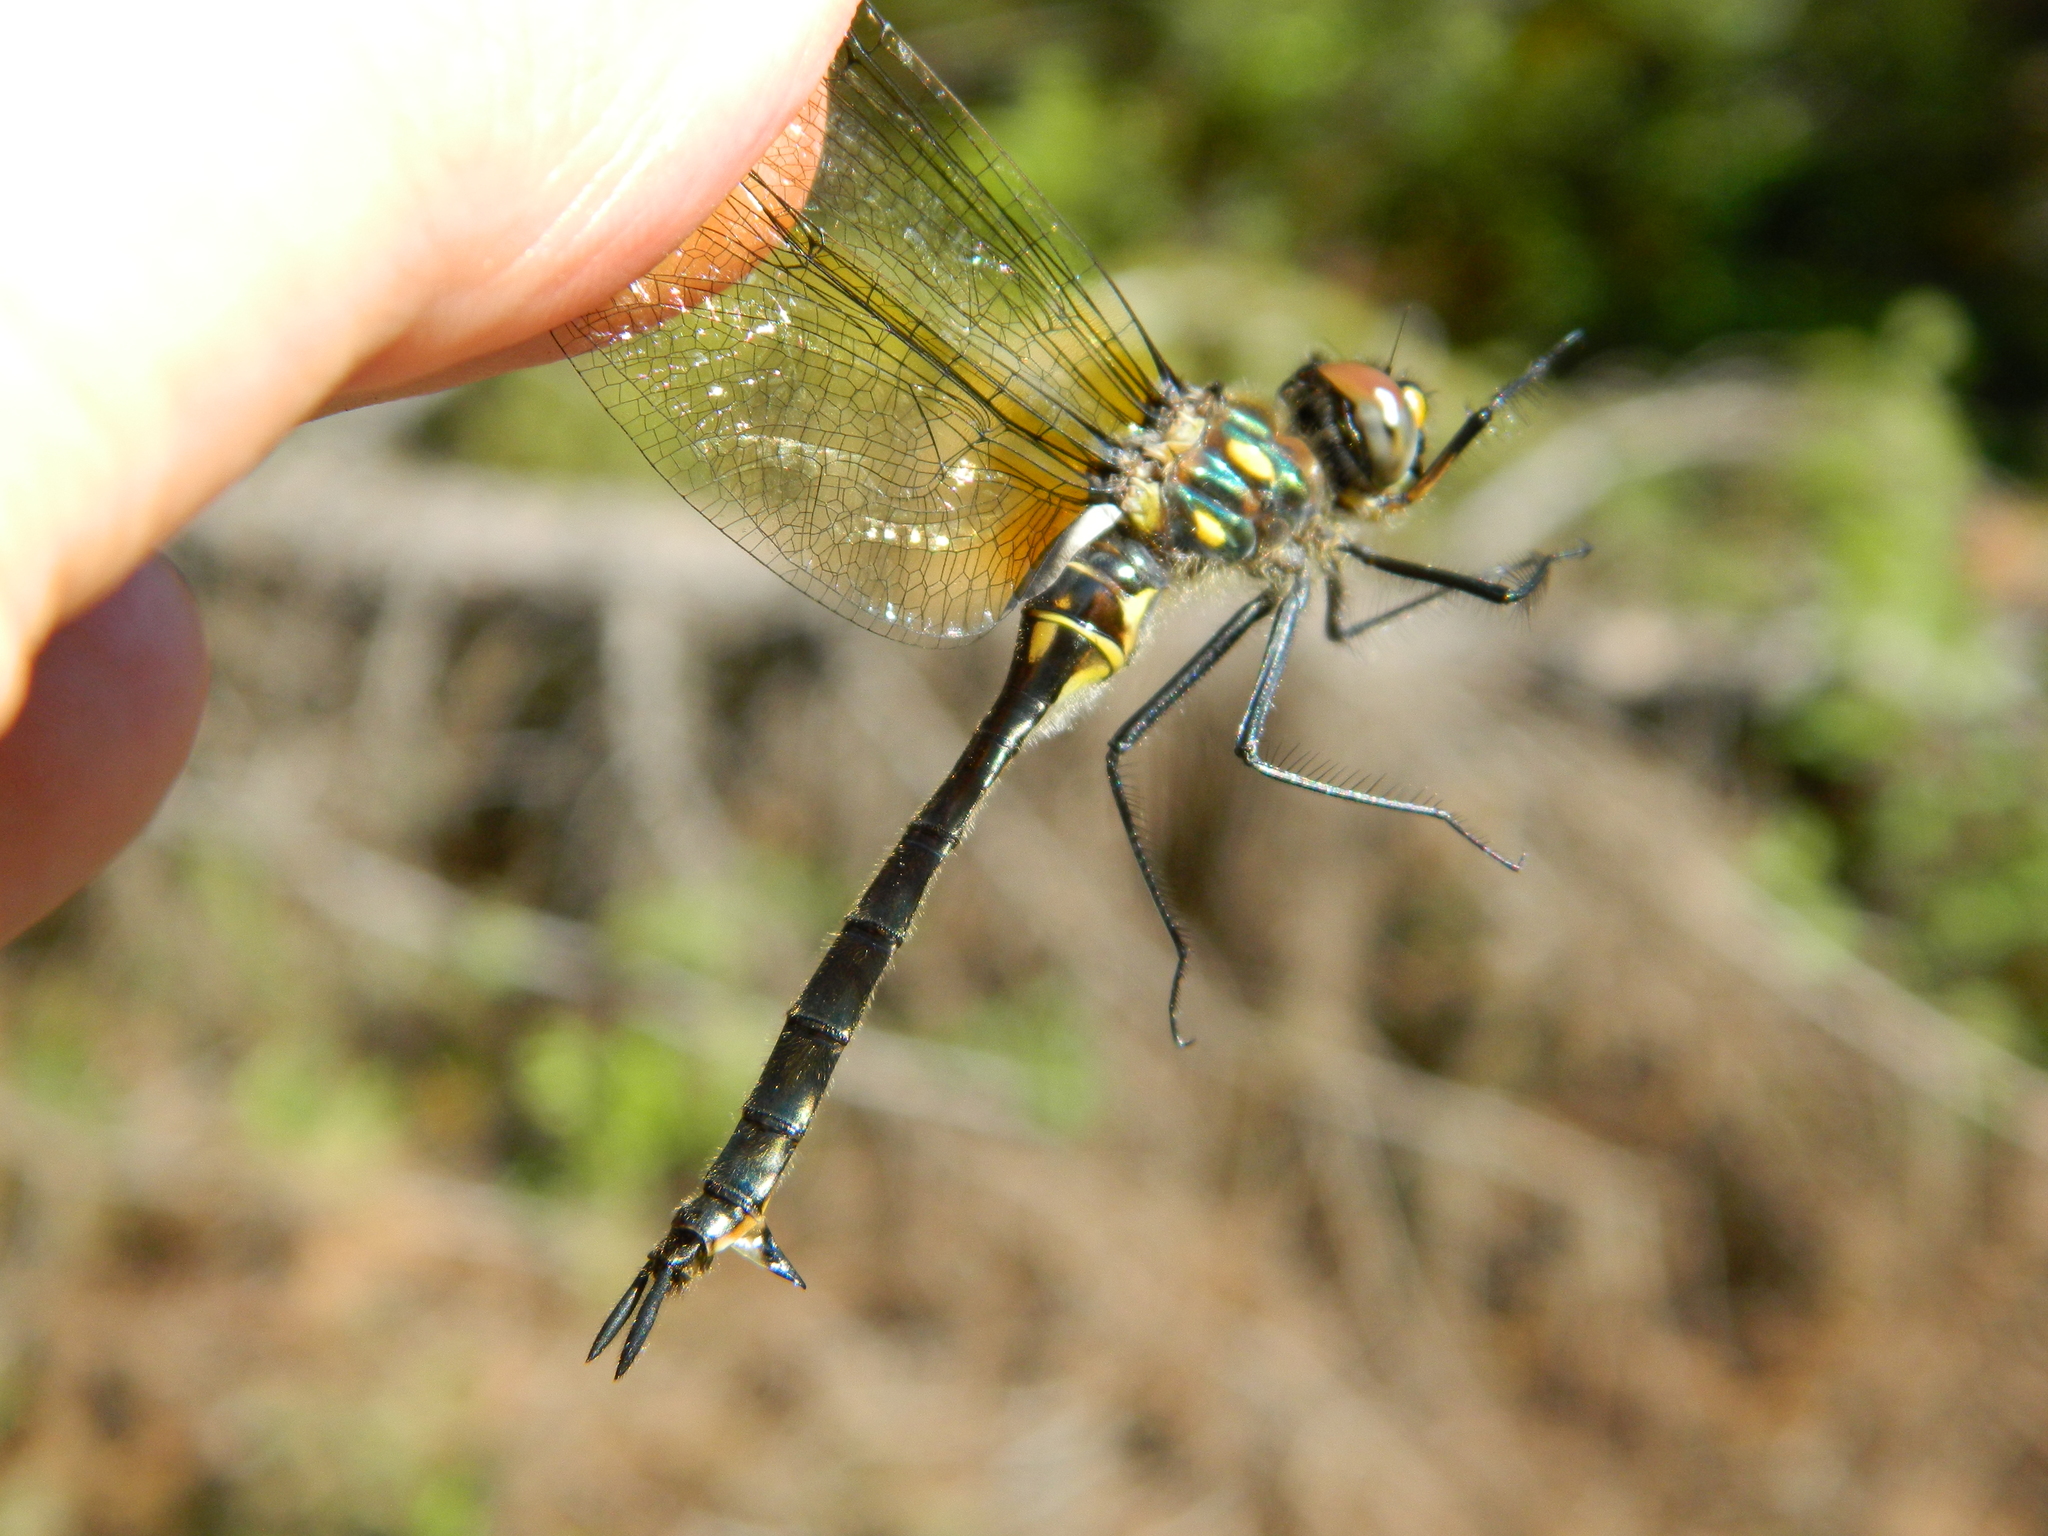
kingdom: Animalia
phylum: Arthropoda
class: Insecta
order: Odonata
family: Corduliidae
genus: Somatochlora
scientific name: Somatochlora minor
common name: Ocellated emerald
